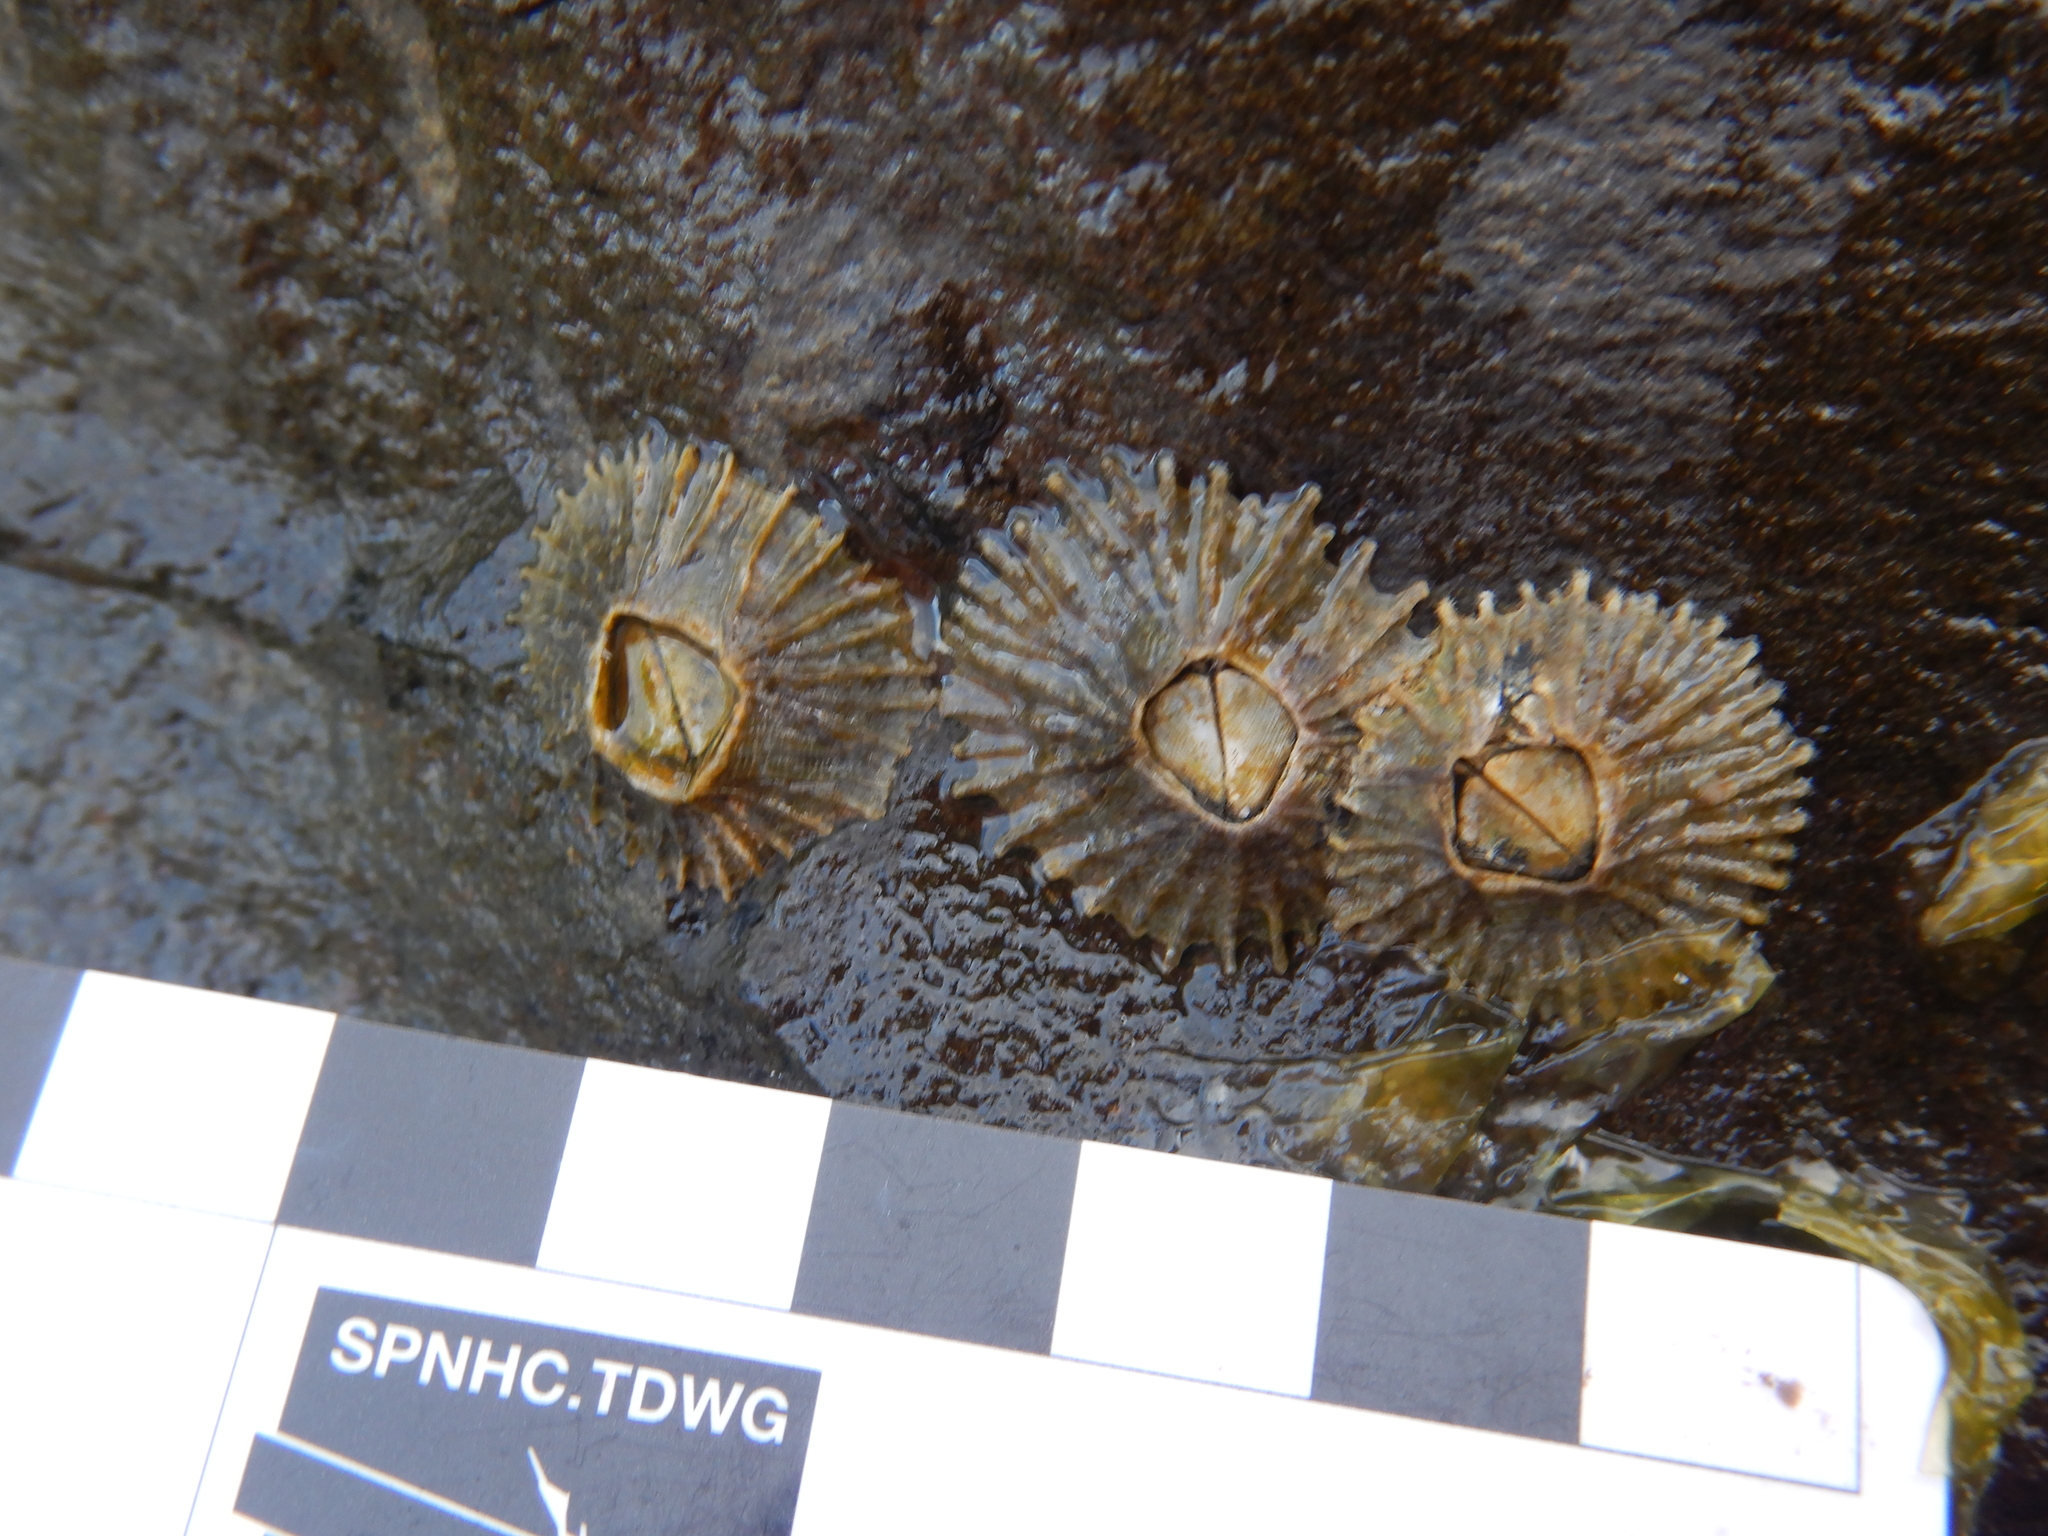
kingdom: Animalia
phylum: Arthropoda
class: Maxillopoda
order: Sessilia
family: Tetraclitidae
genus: Tetraclitella
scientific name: Tetraclitella purpurascens
